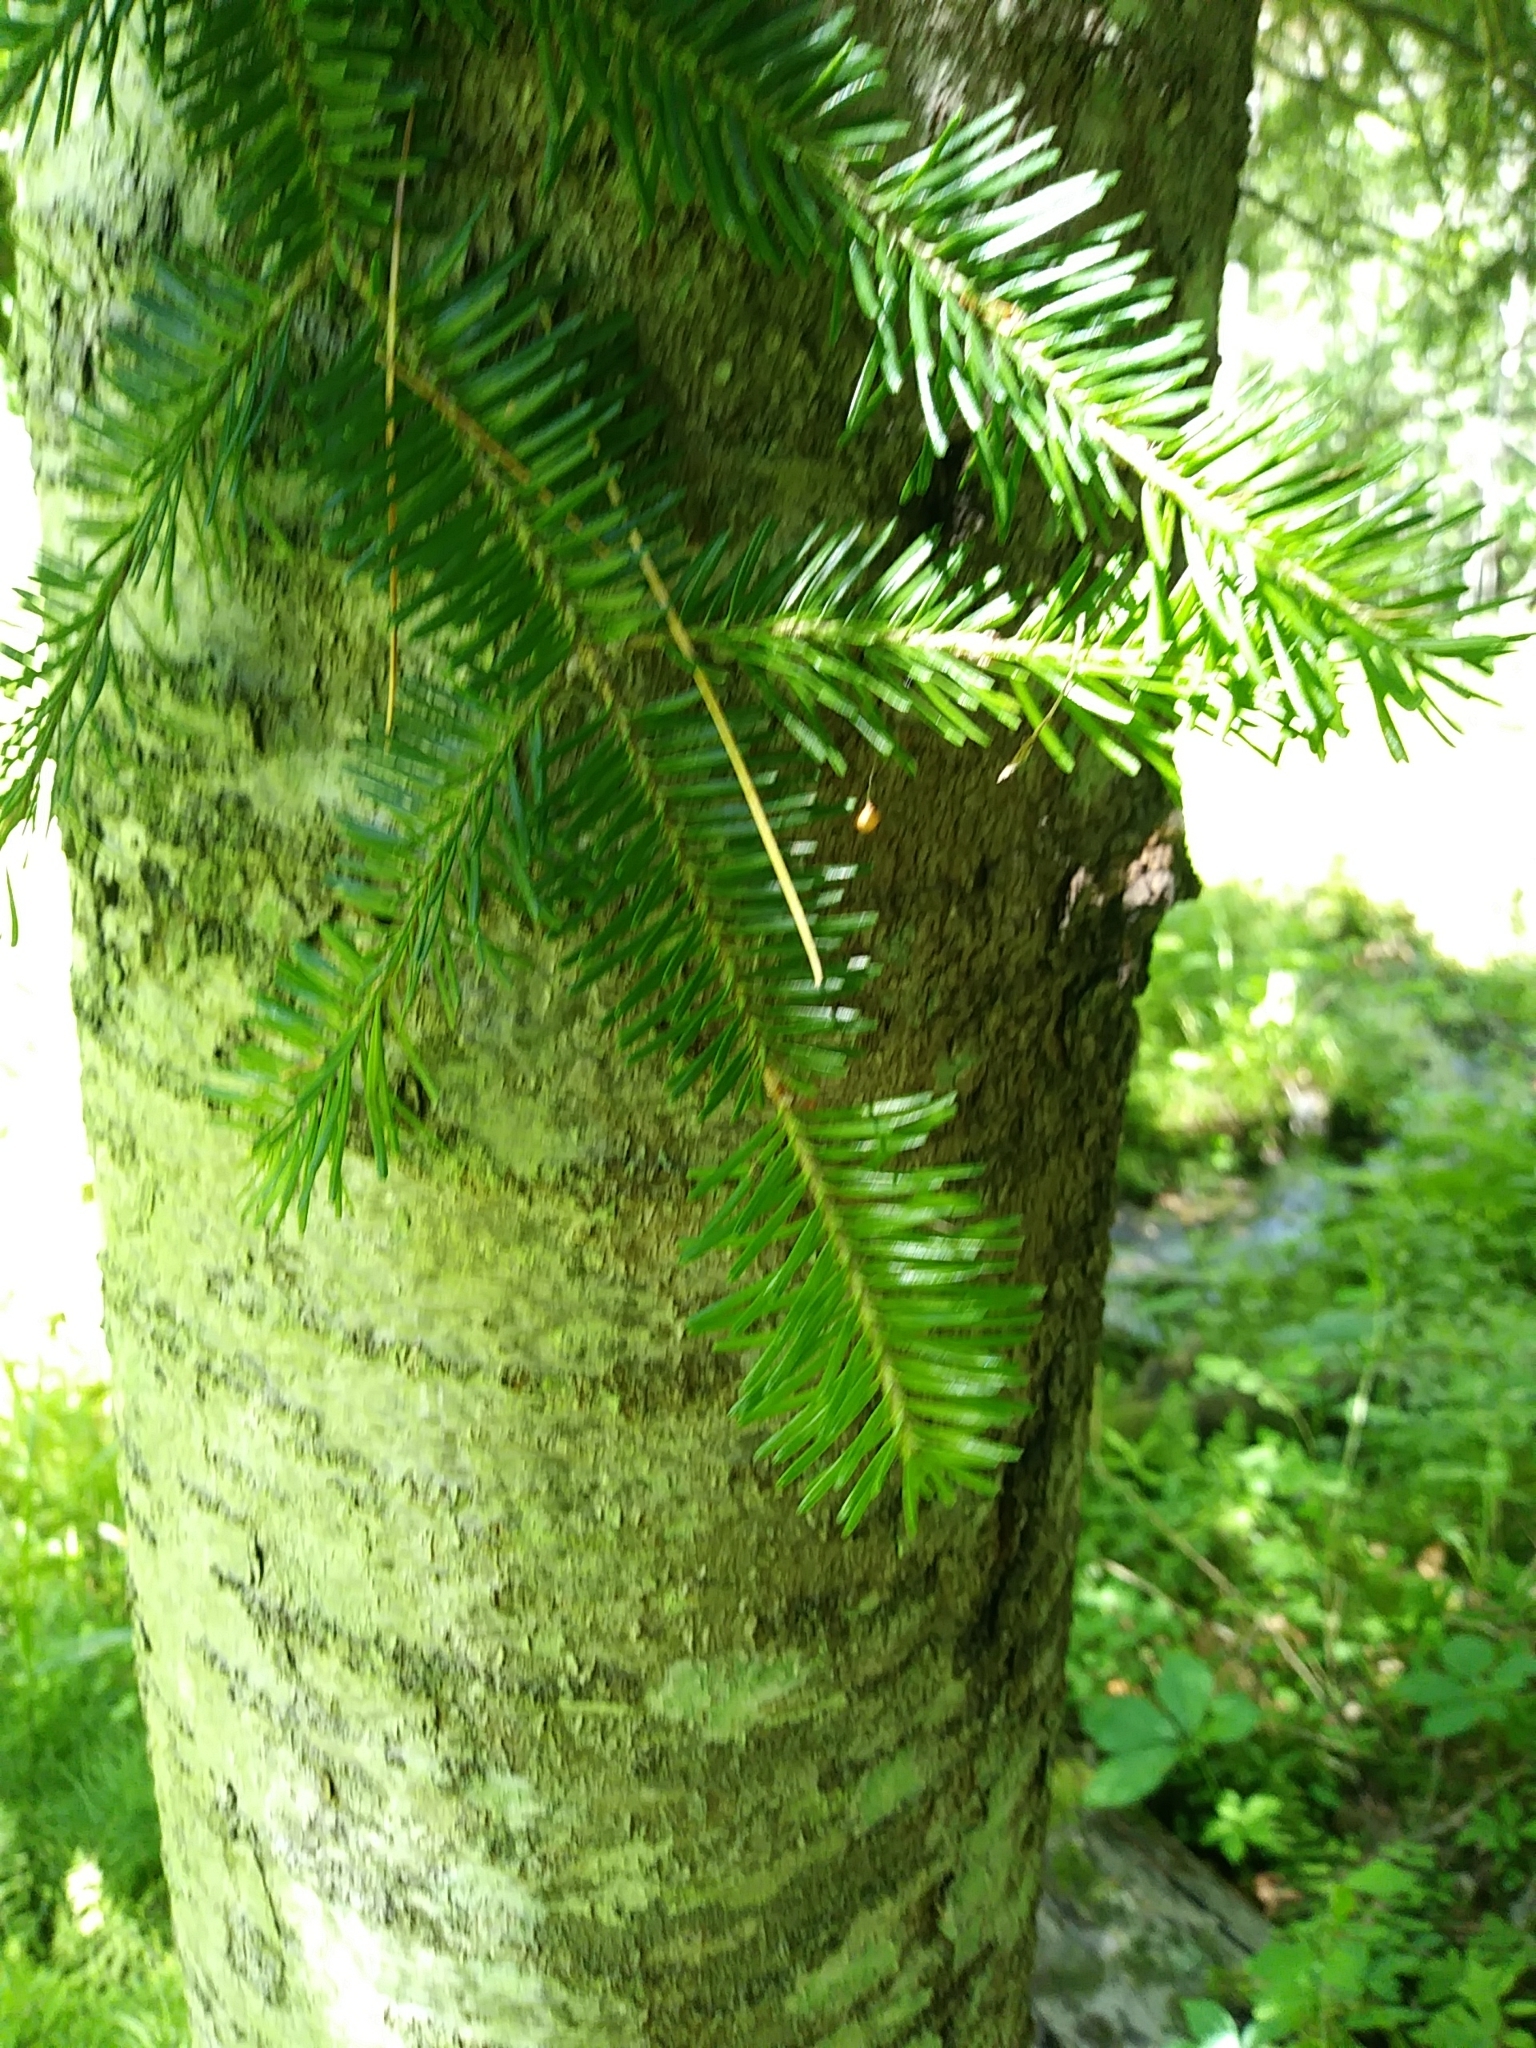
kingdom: Plantae
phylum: Tracheophyta
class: Pinopsida
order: Pinales
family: Pinaceae
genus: Abies
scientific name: Abies balsamea
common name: Balsam fir
